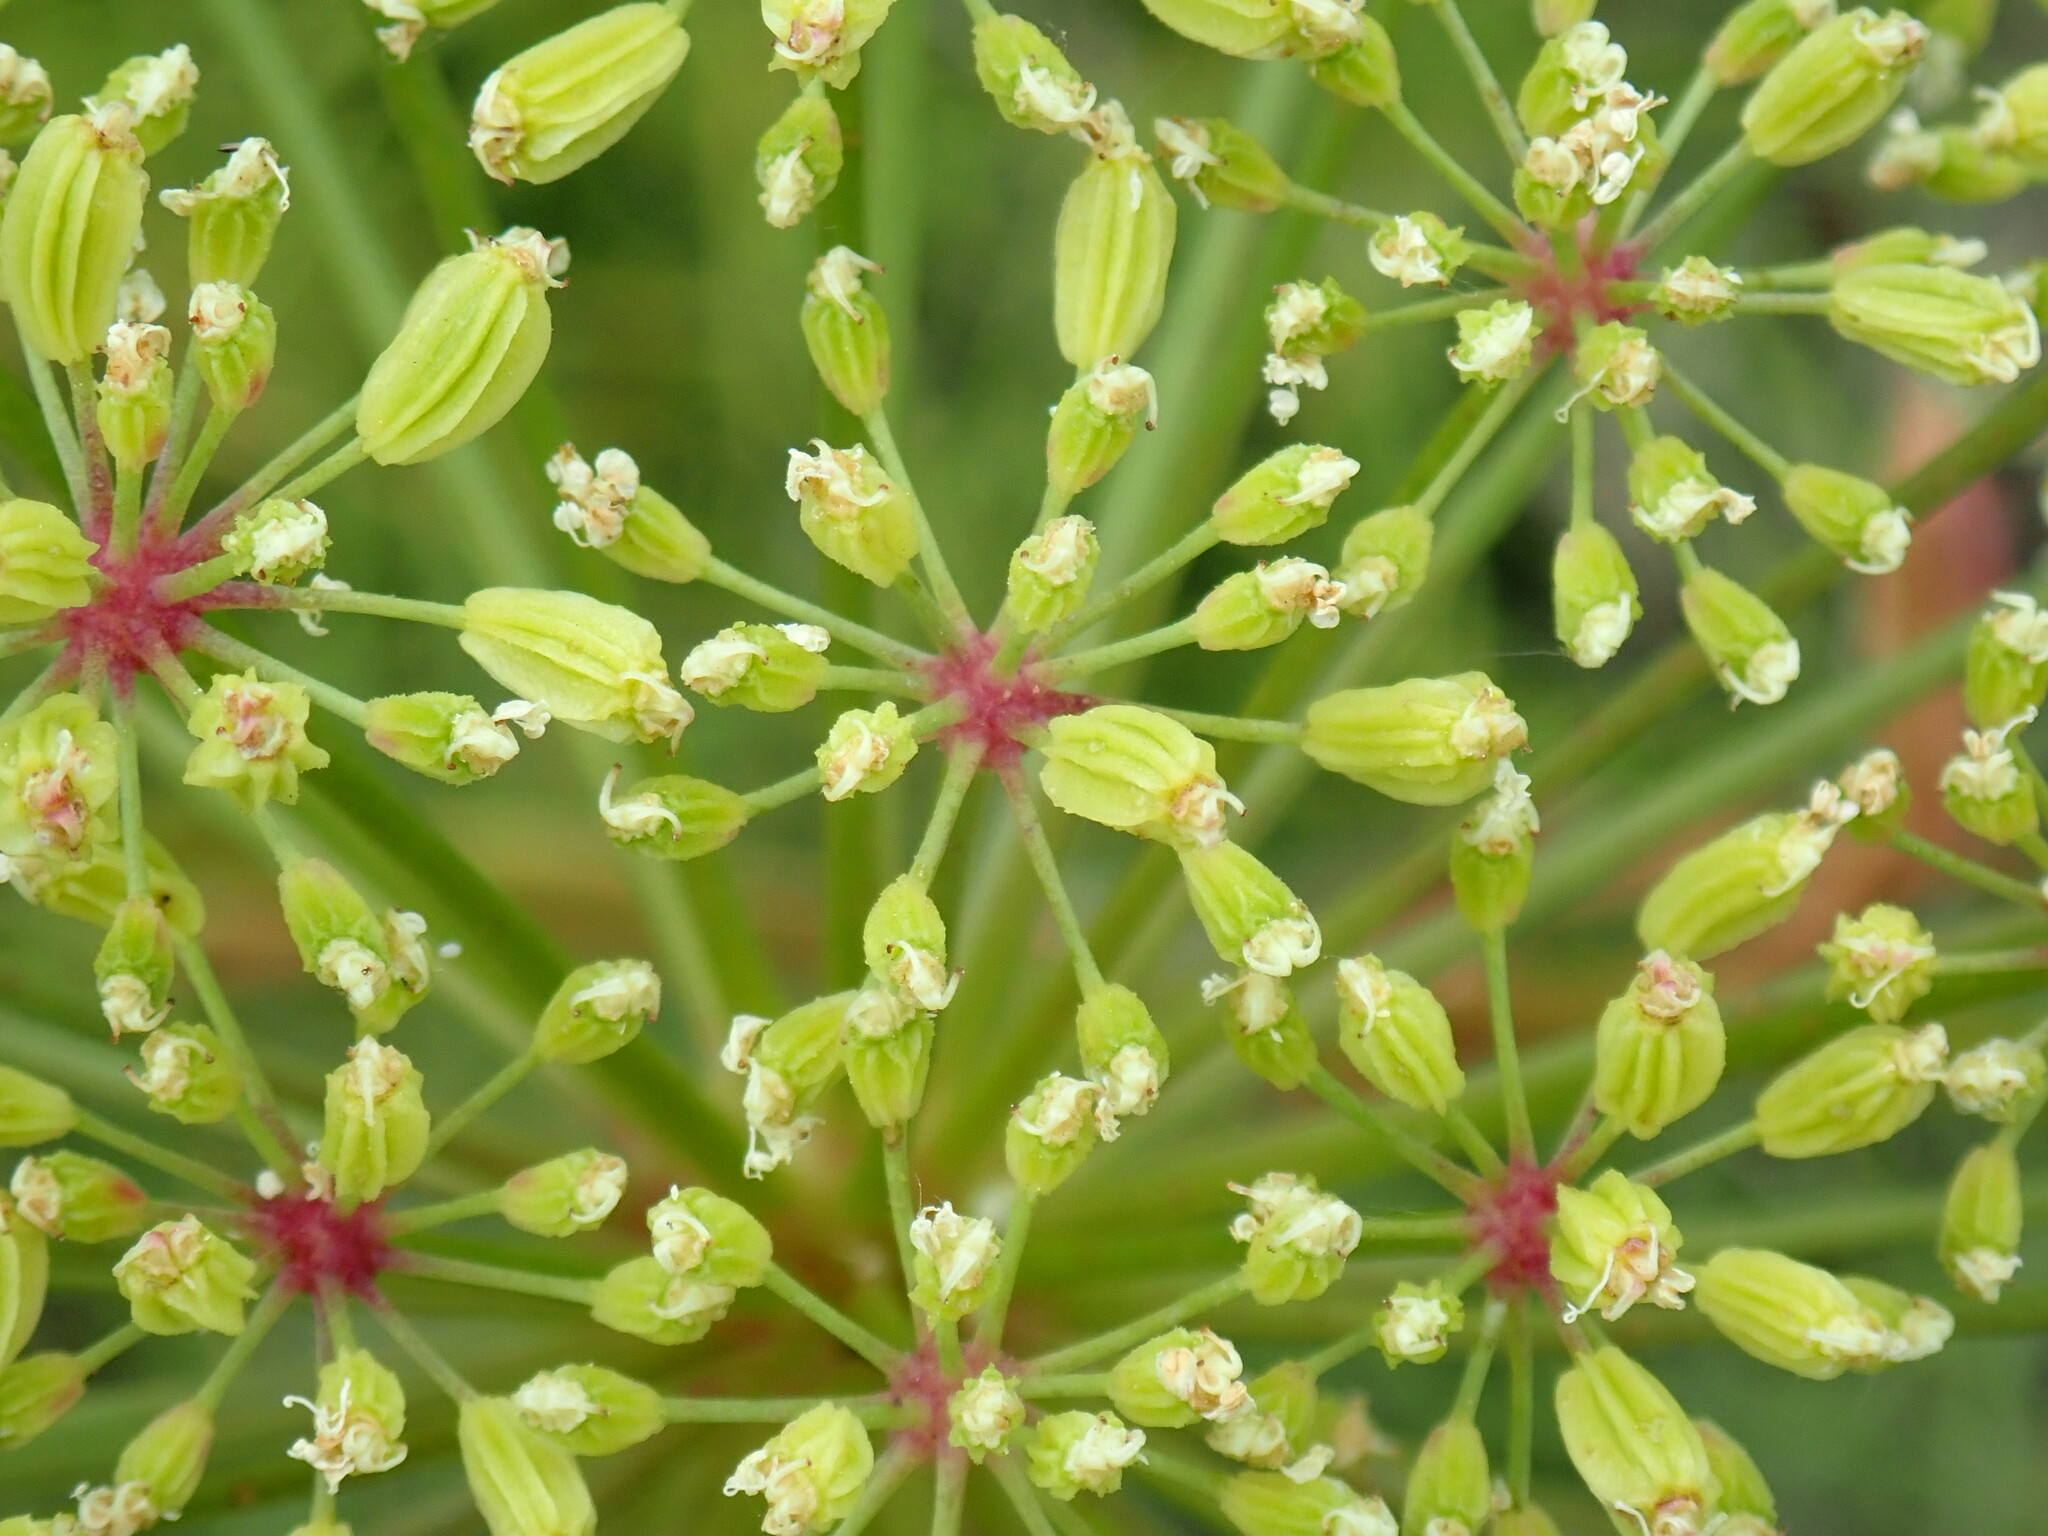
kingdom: Plantae
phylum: Tracheophyta
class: Magnoliopsida
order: Apiales
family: Apiaceae
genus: Angelica
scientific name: Angelica lineariloba
